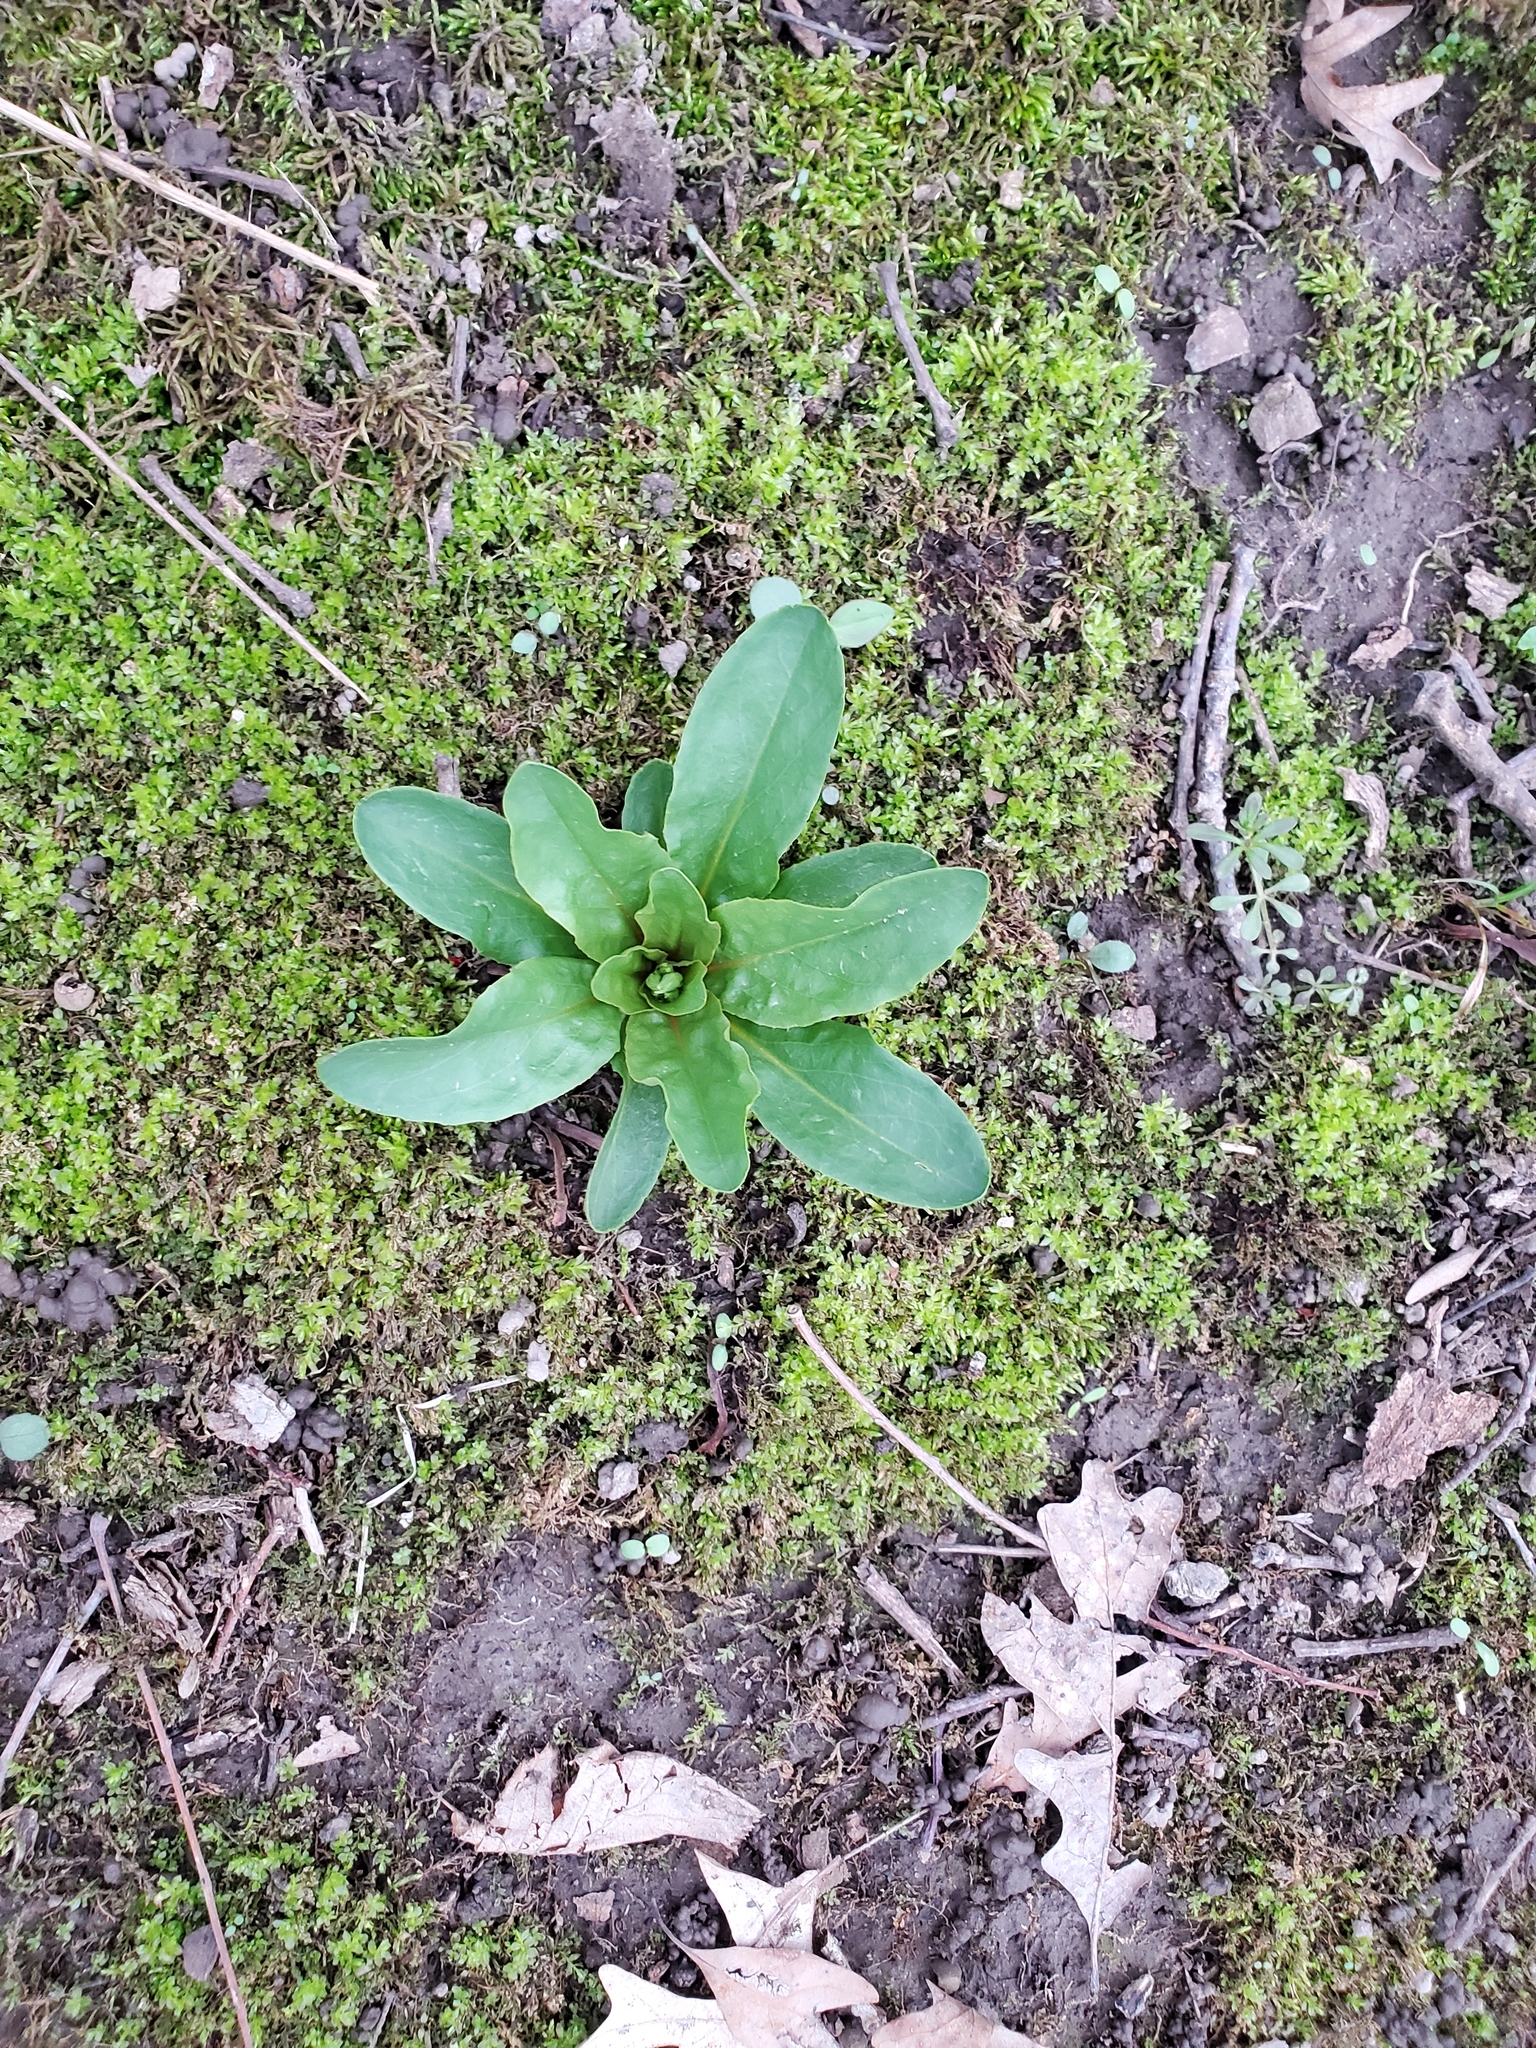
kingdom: Plantae
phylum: Tracheophyta
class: Magnoliopsida
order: Ericales
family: Primulaceae
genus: Dodecatheon
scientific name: Dodecatheon meadia
